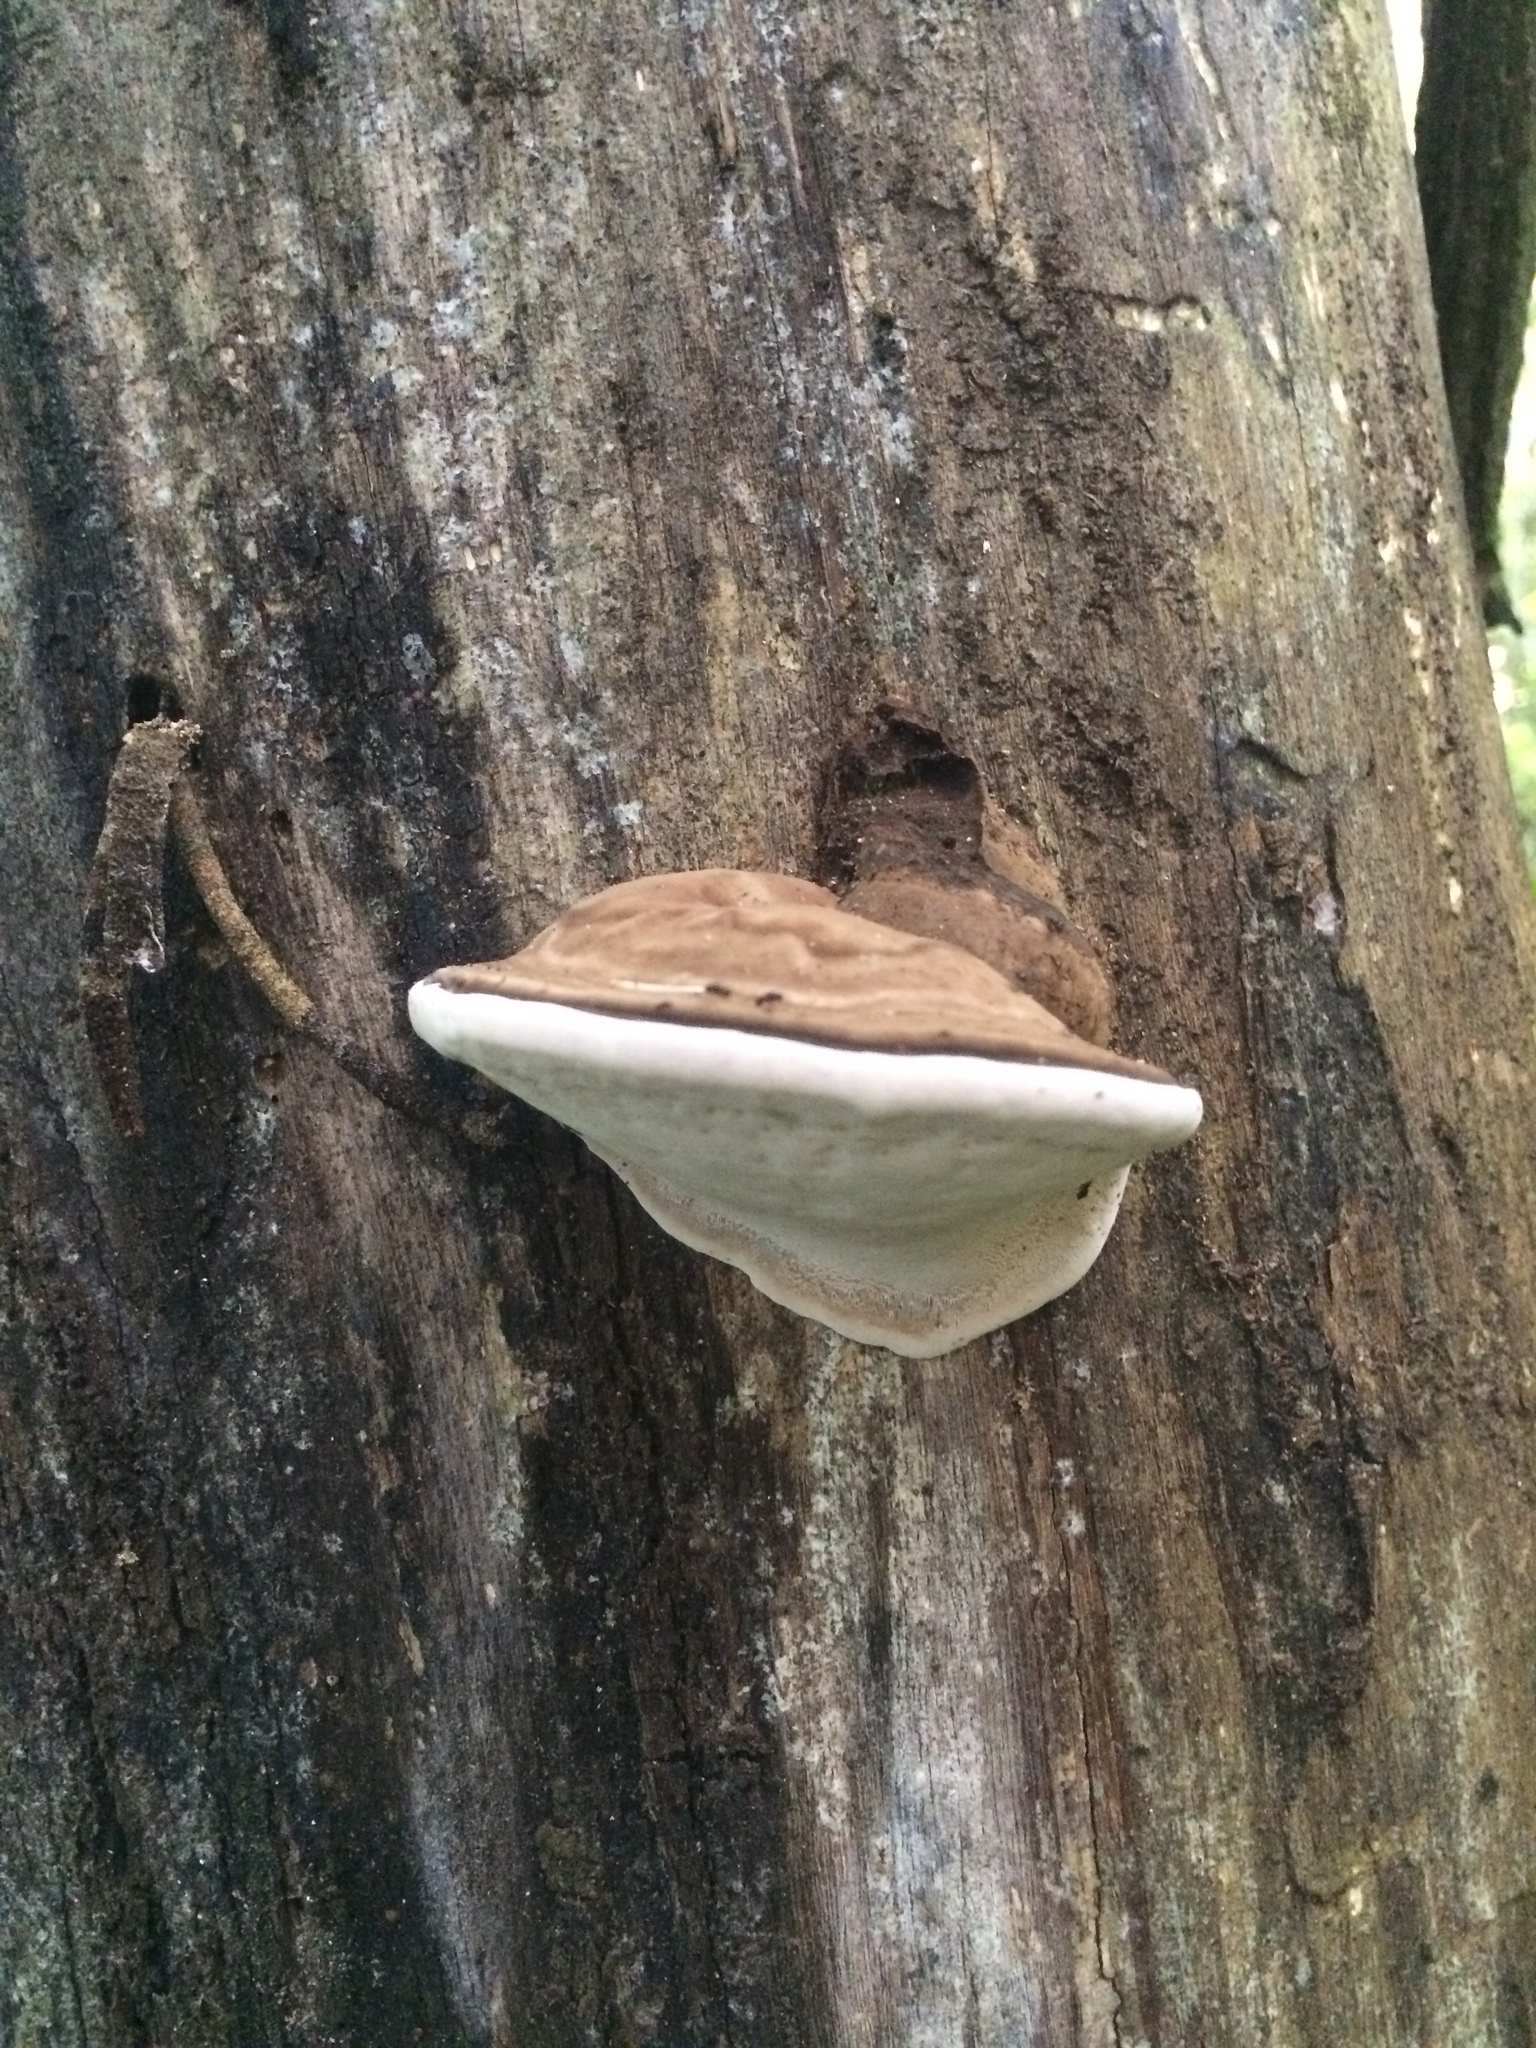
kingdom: Fungi
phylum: Basidiomycota
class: Agaricomycetes
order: Polyporales
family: Polyporaceae
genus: Ganoderma
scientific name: Ganoderma applanatum
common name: Artist's bracket
